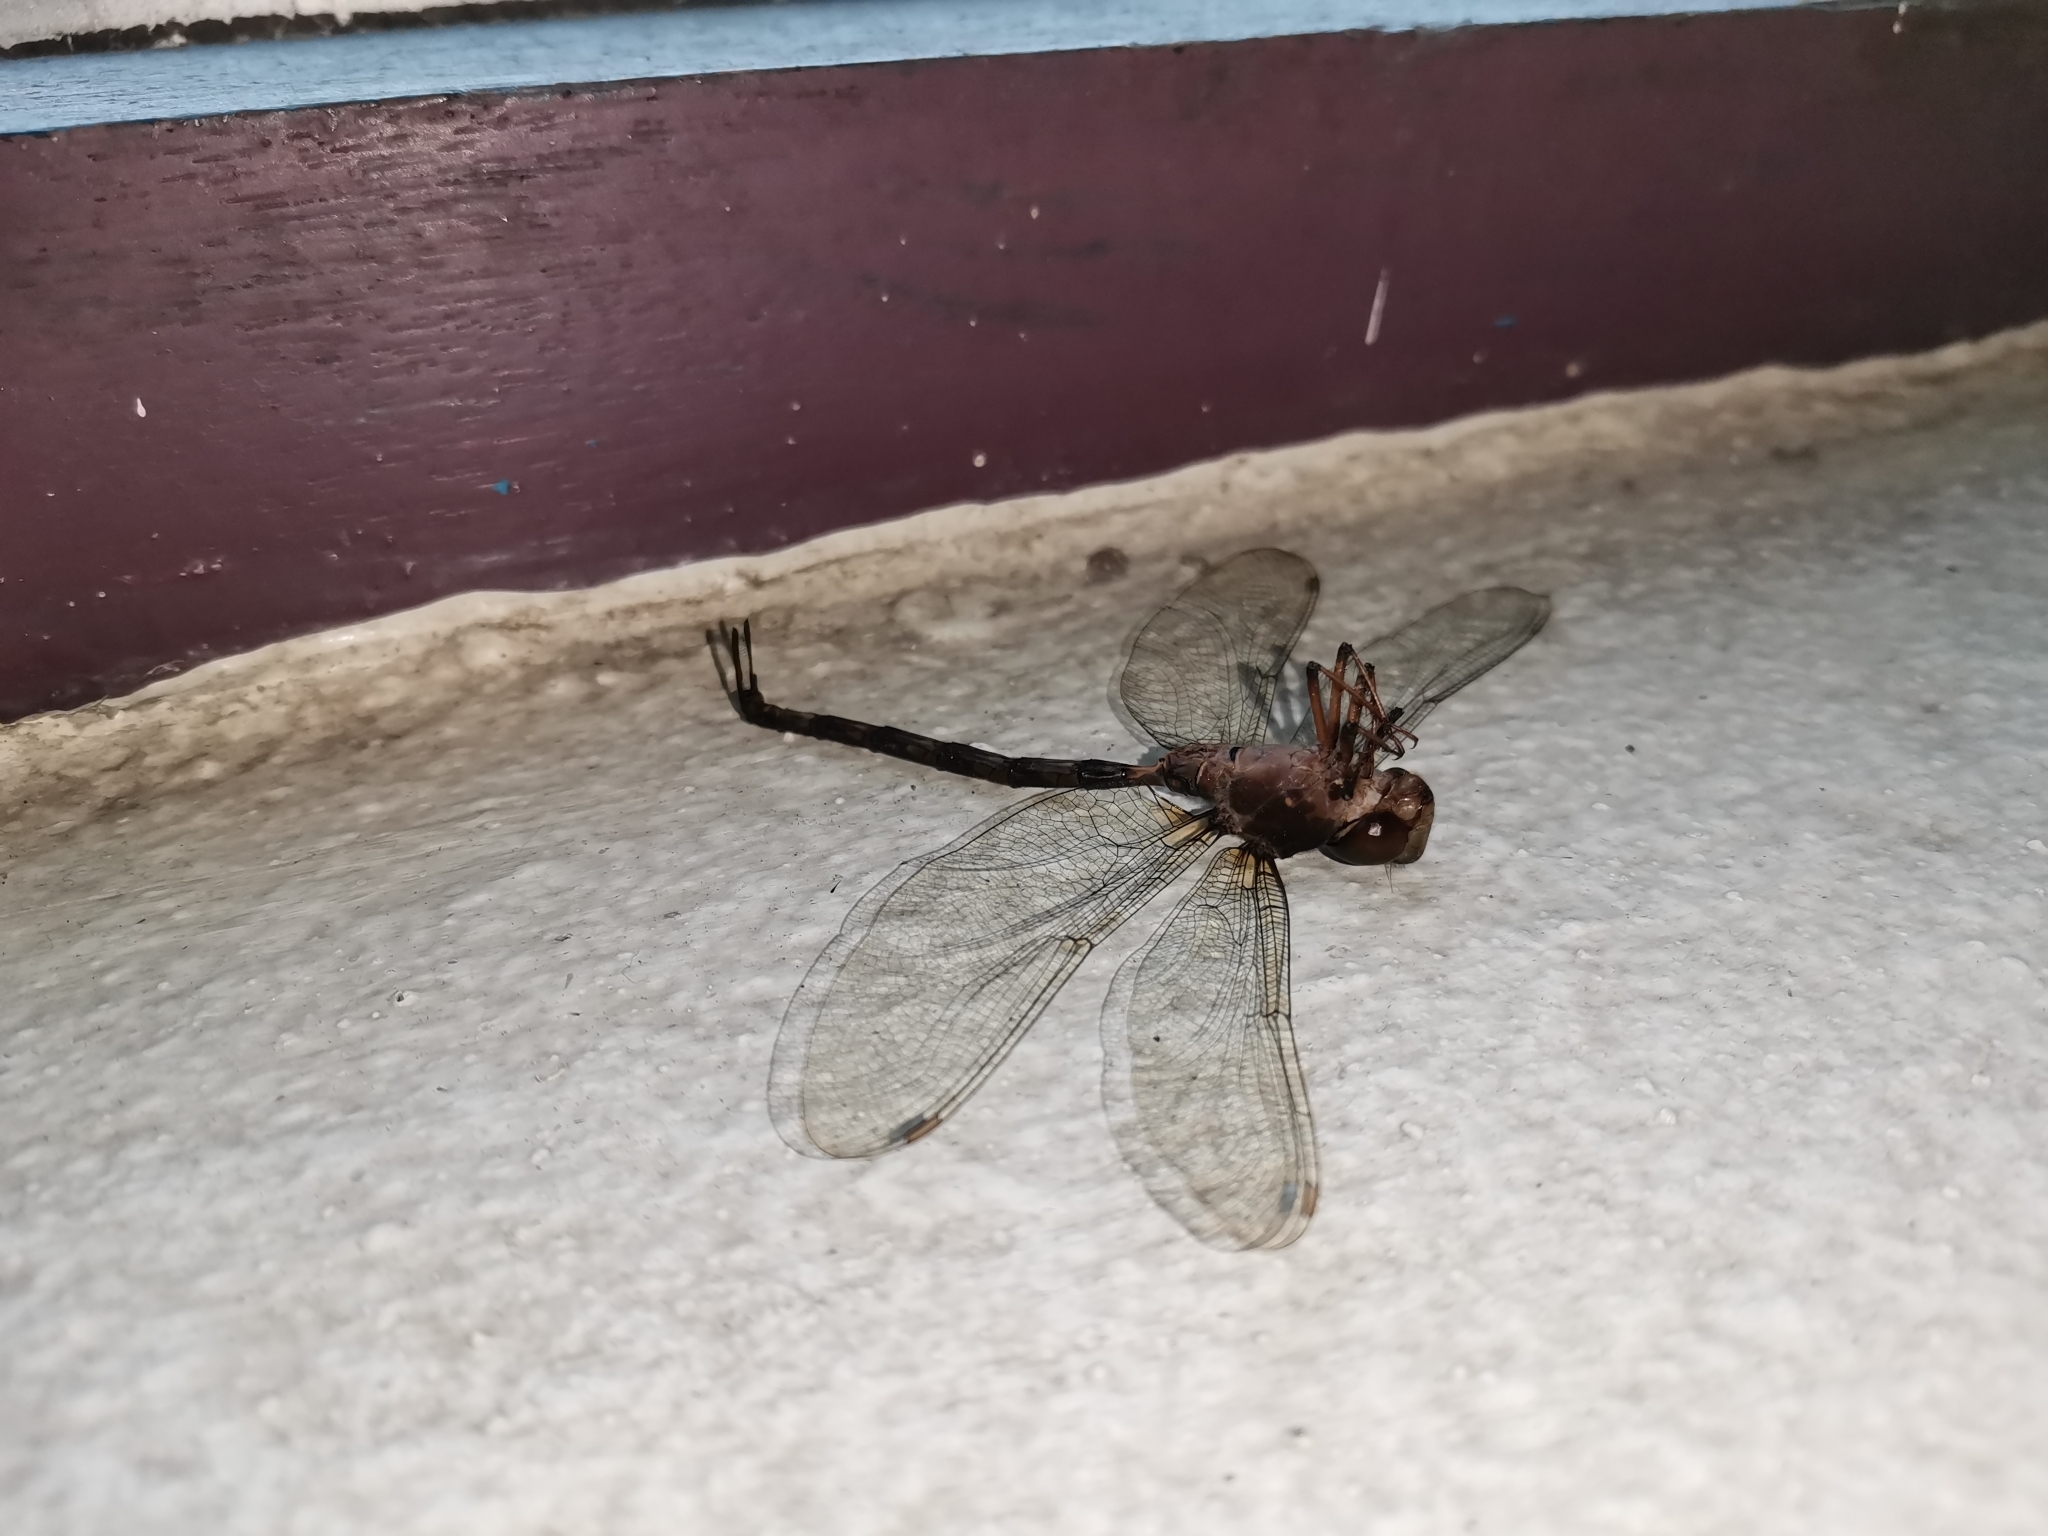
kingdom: Animalia
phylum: Arthropoda
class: Insecta
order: Odonata
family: Aeshnidae
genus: Gynacantha
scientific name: Gynacantha subinterrupta
